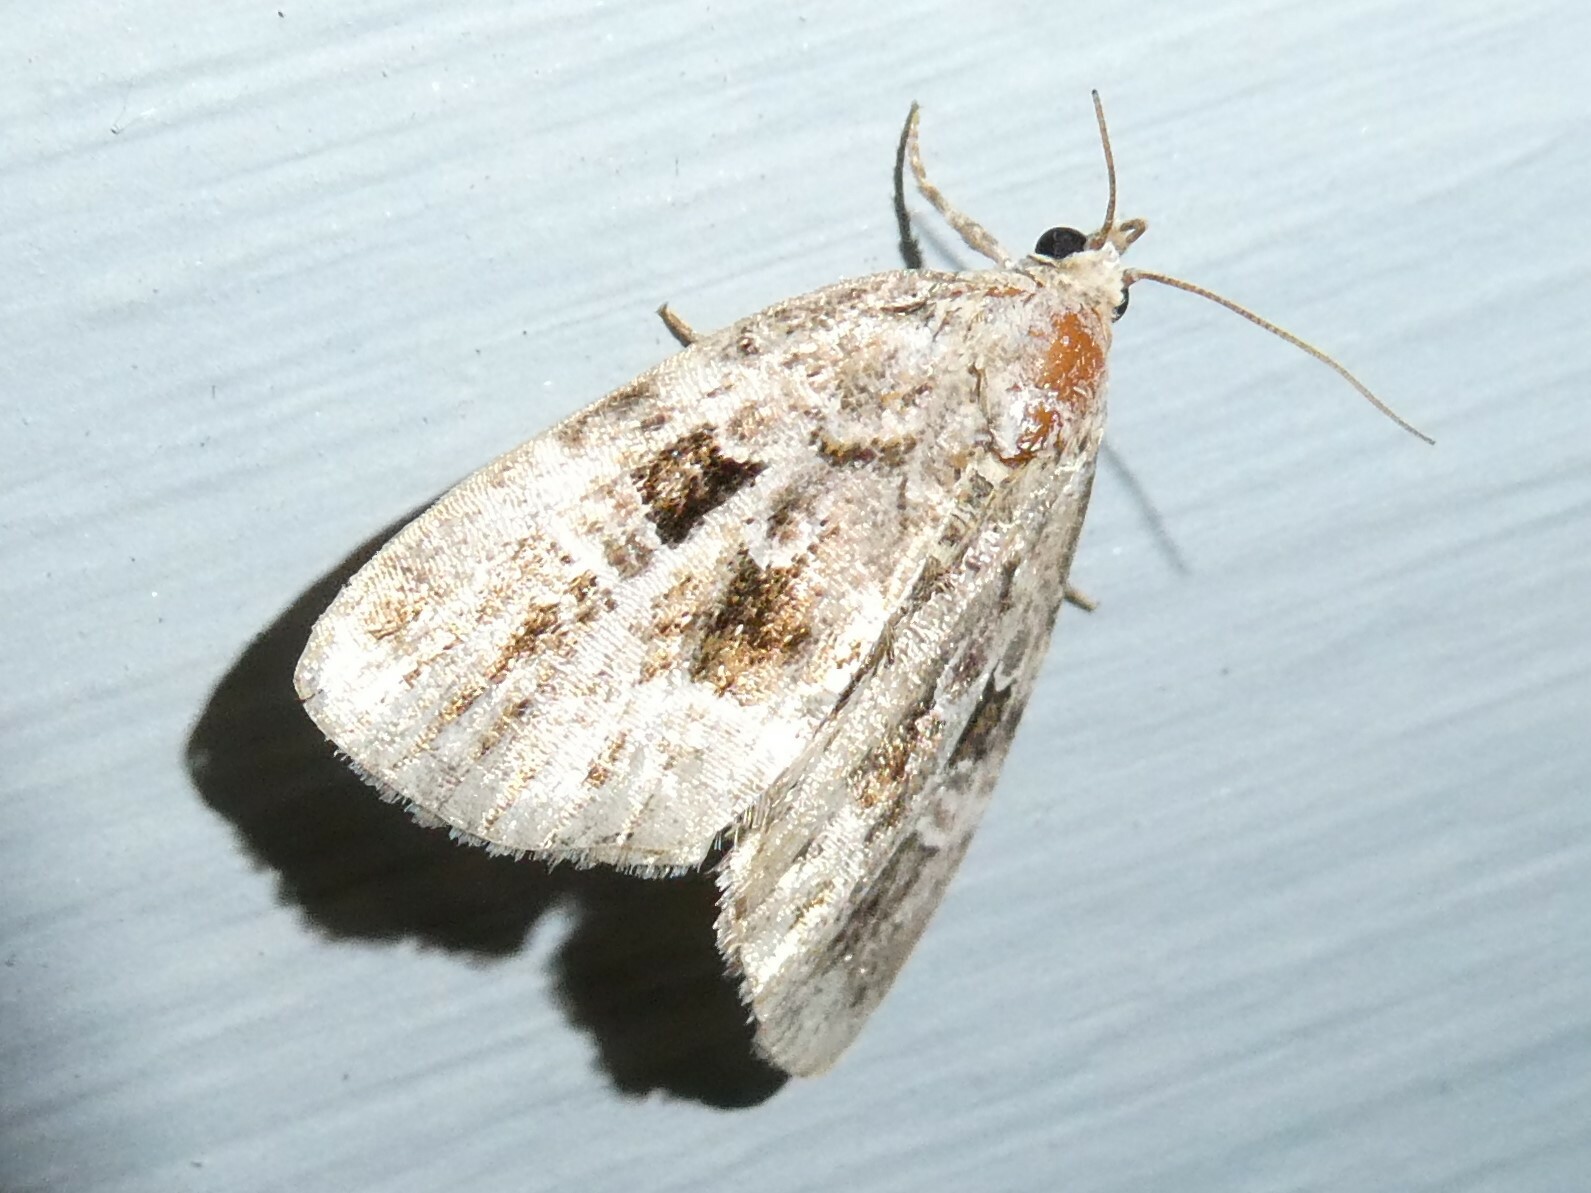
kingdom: Animalia
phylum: Arthropoda
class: Insecta
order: Lepidoptera
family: Noctuidae
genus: Protodeltote
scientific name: Protodeltote muscosula
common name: Large mossy glyph
